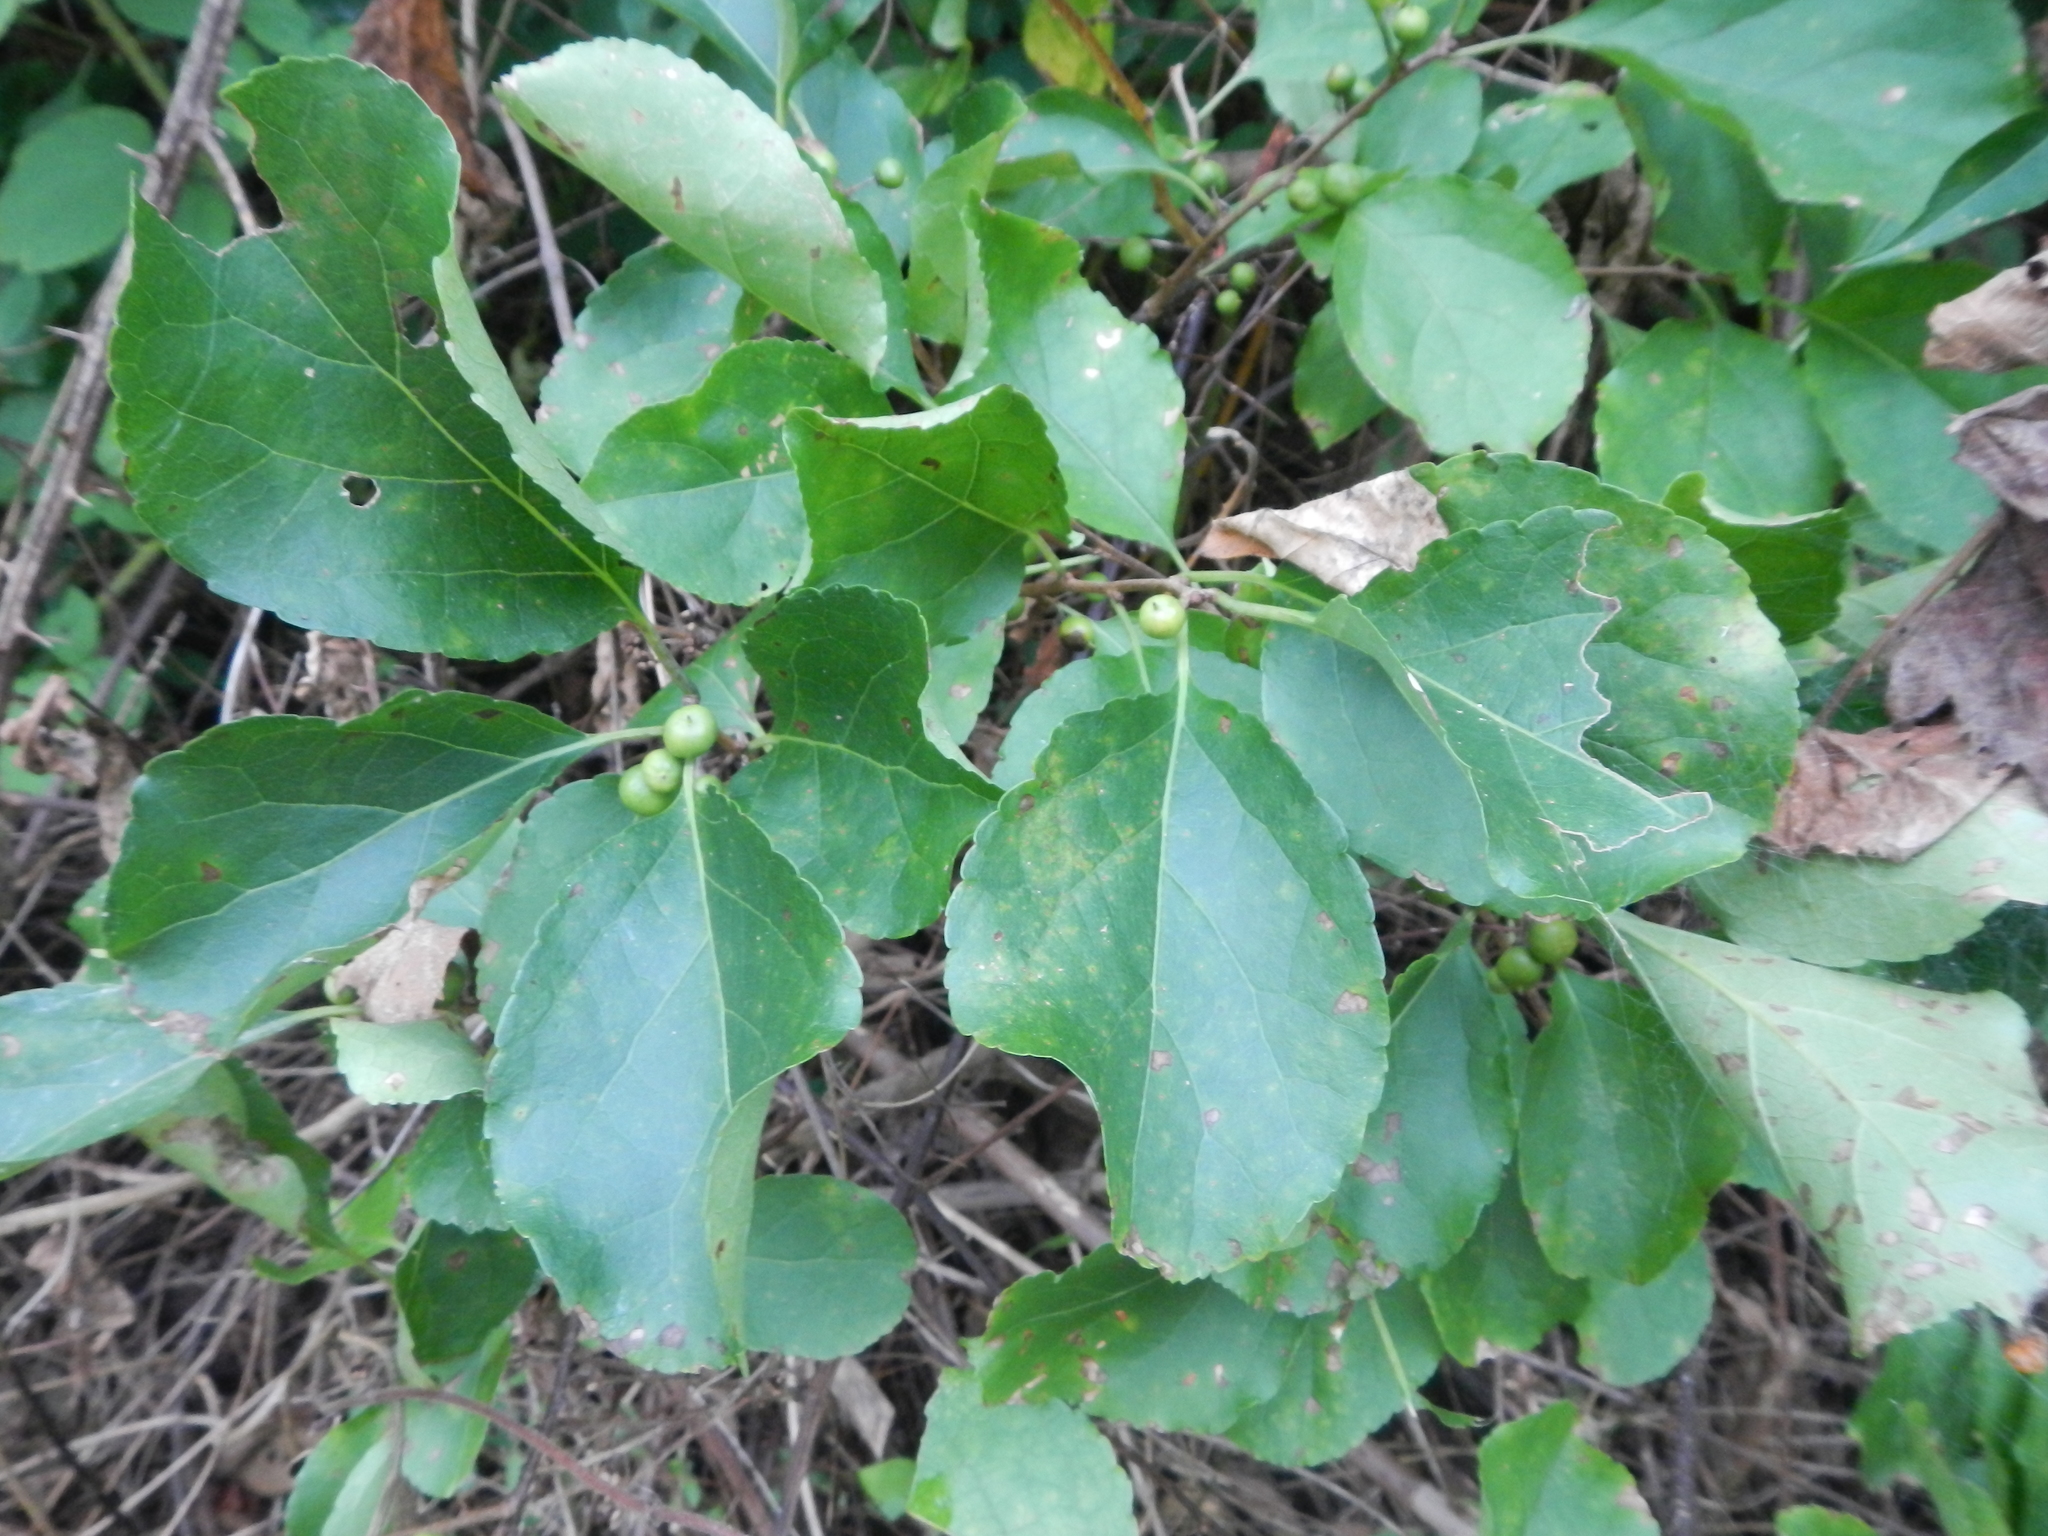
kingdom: Plantae
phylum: Tracheophyta
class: Magnoliopsida
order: Celastrales
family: Celastraceae
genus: Celastrus
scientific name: Celastrus orbiculatus
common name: Oriental bittersweet
